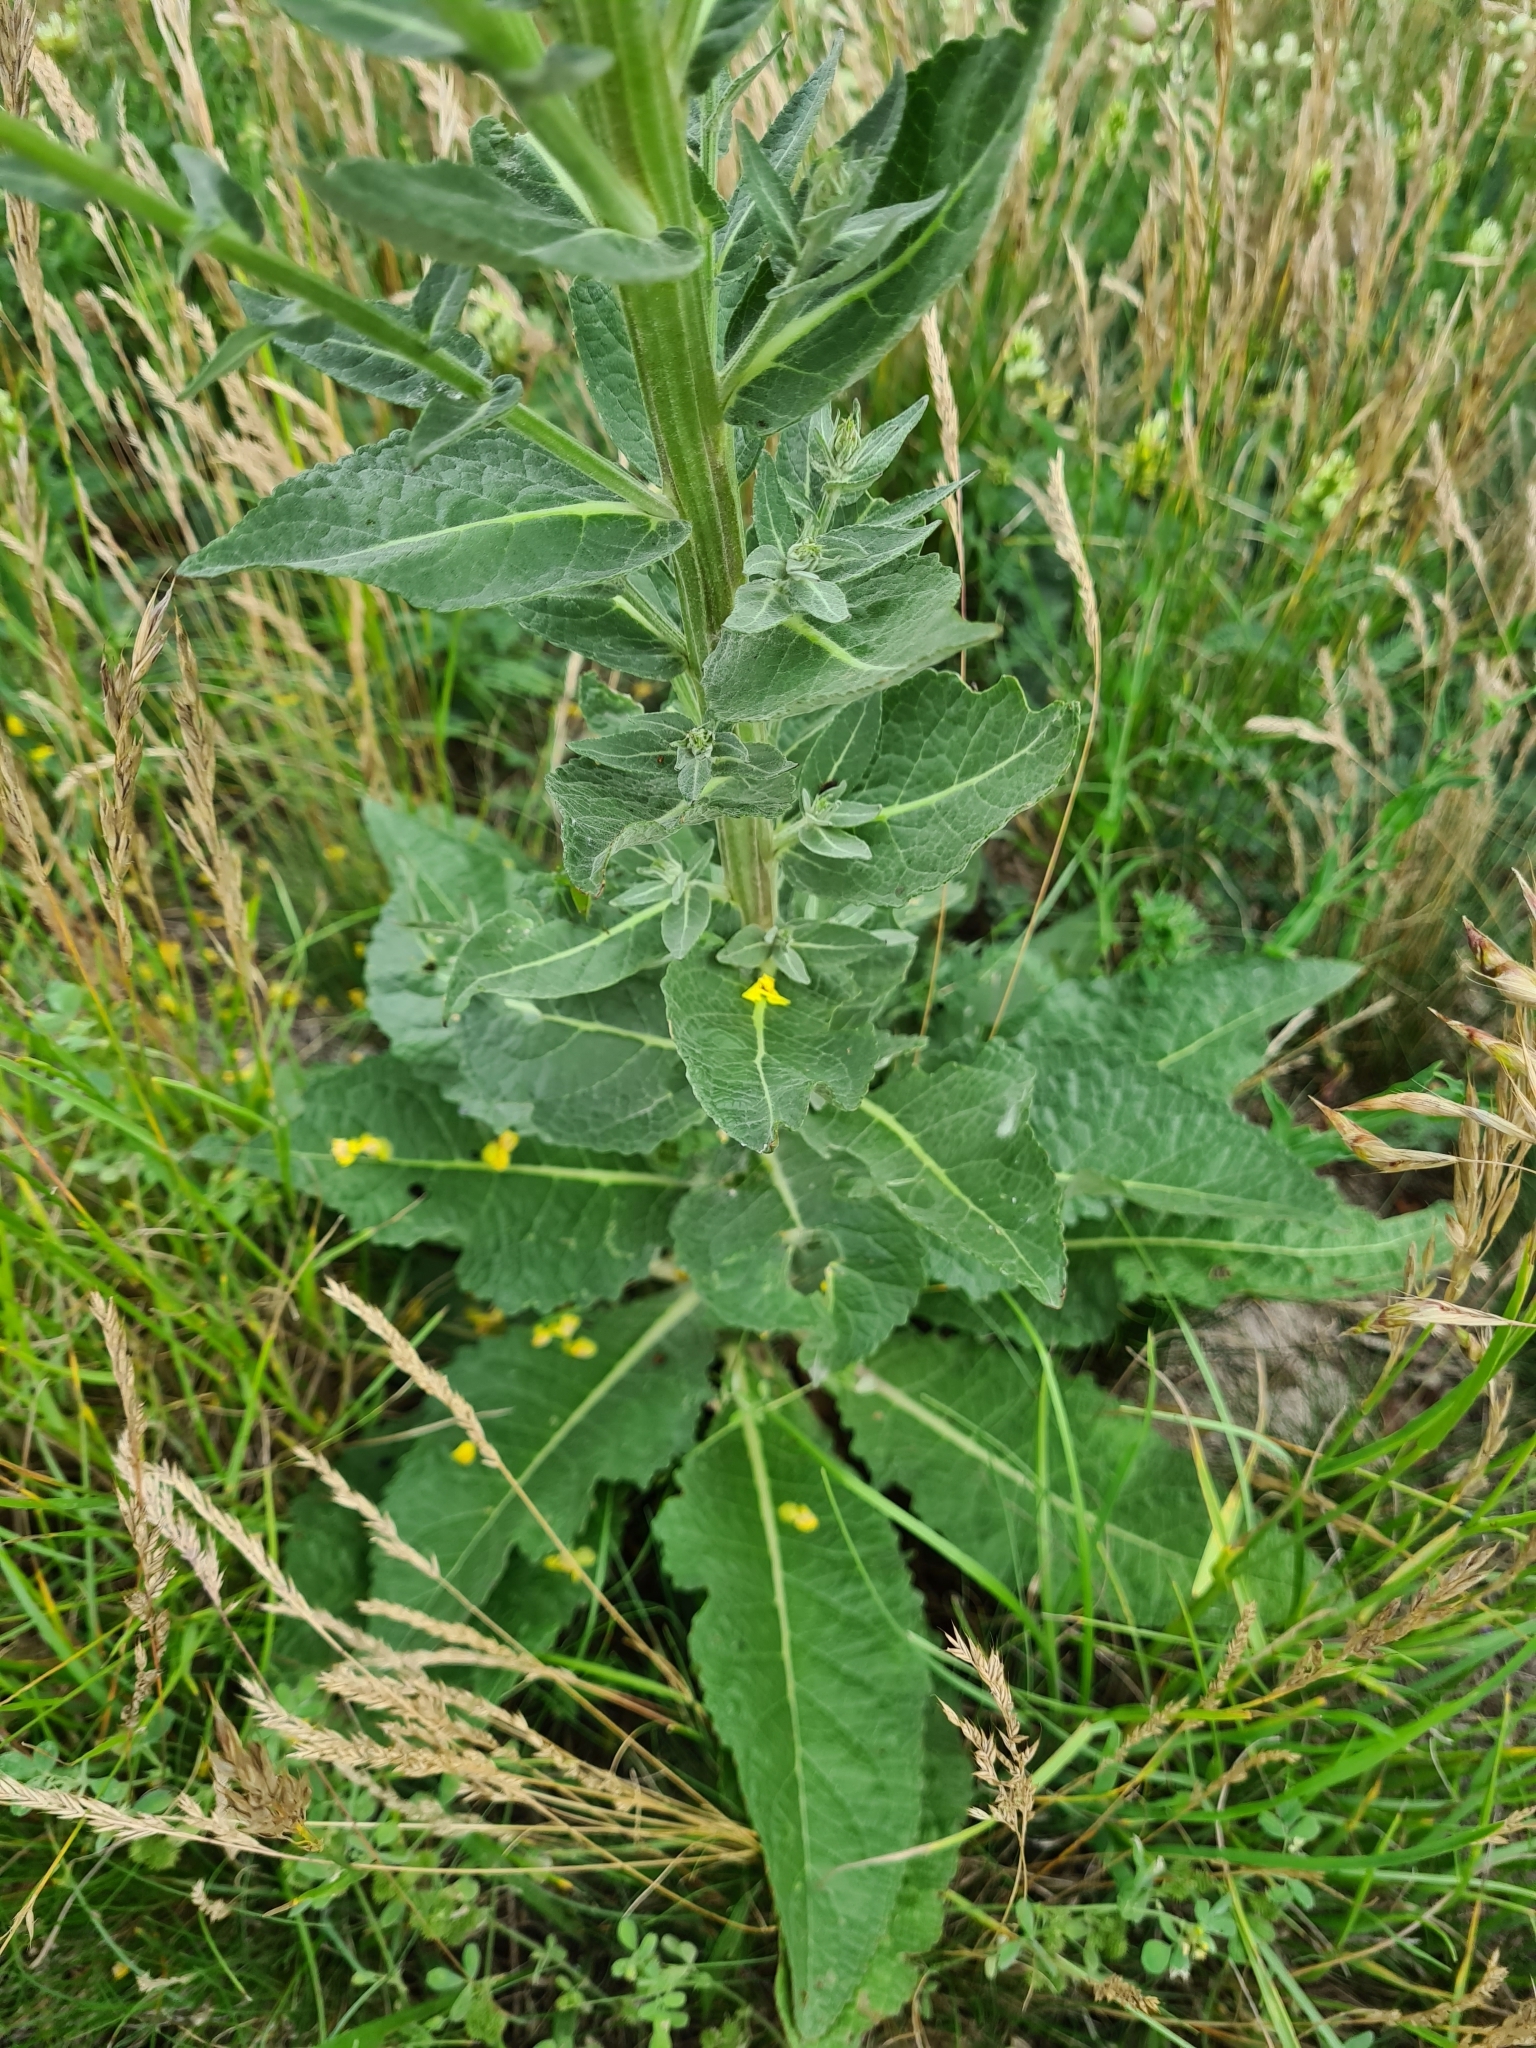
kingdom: Plantae
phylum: Tracheophyta
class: Magnoliopsida
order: Lamiales
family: Scrophulariaceae
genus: Verbascum
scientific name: Verbascum lychnitis
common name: White mullein
